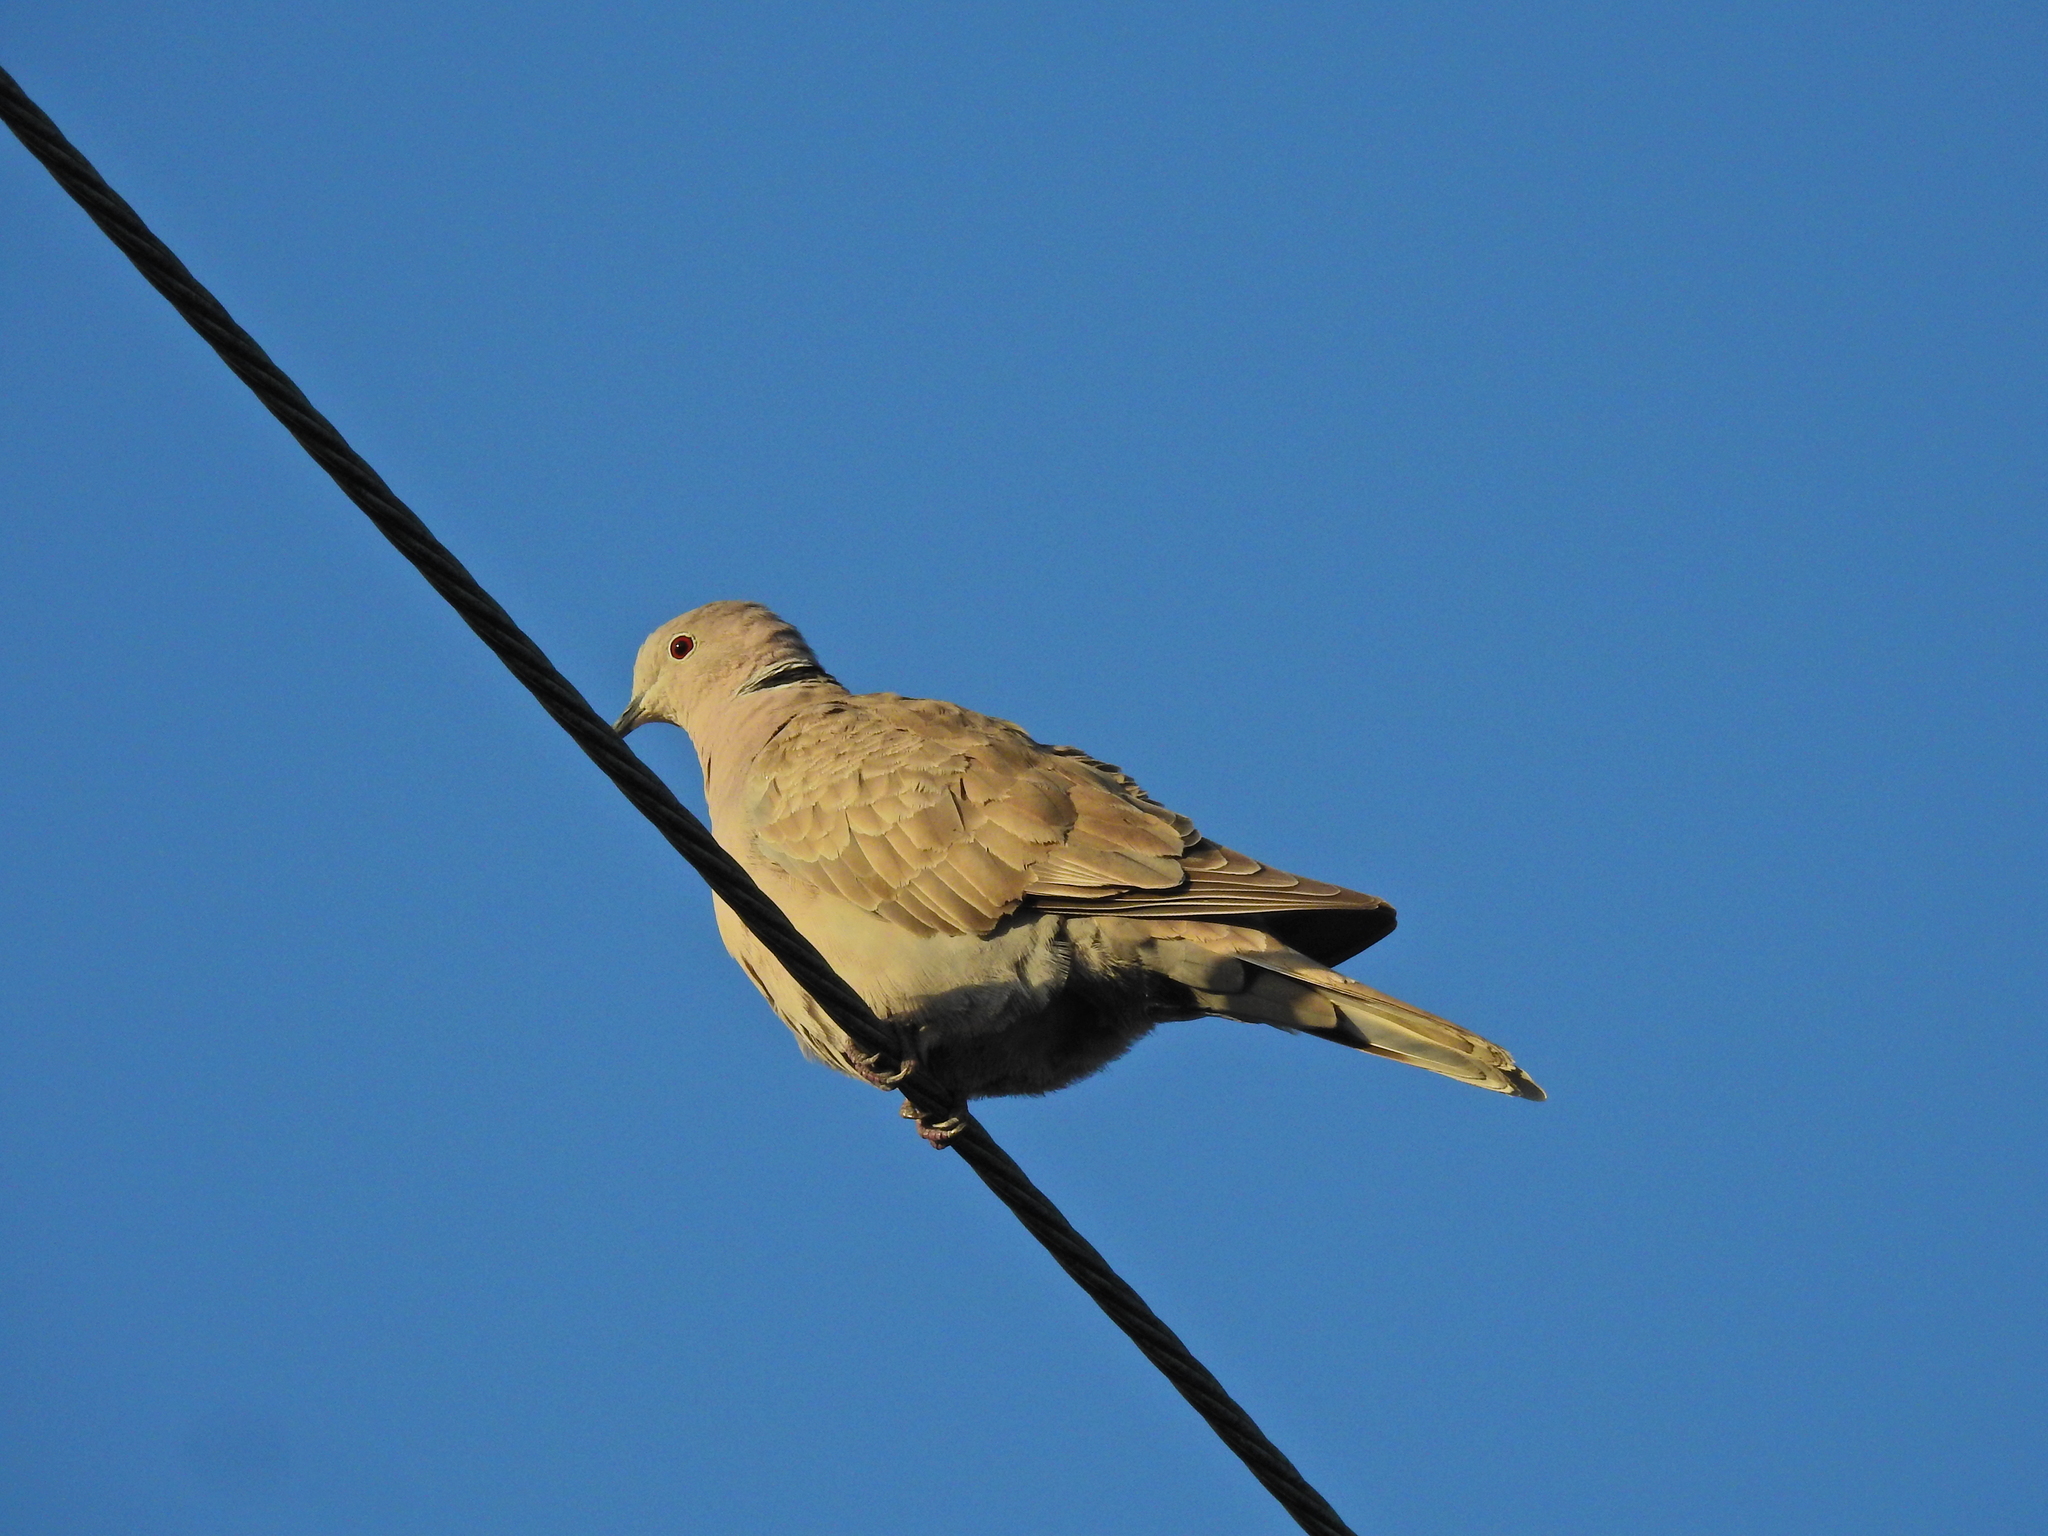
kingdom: Animalia
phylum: Chordata
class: Aves
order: Columbiformes
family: Columbidae
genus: Streptopelia
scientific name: Streptopelia decaocto
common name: Eurasian collared dove
